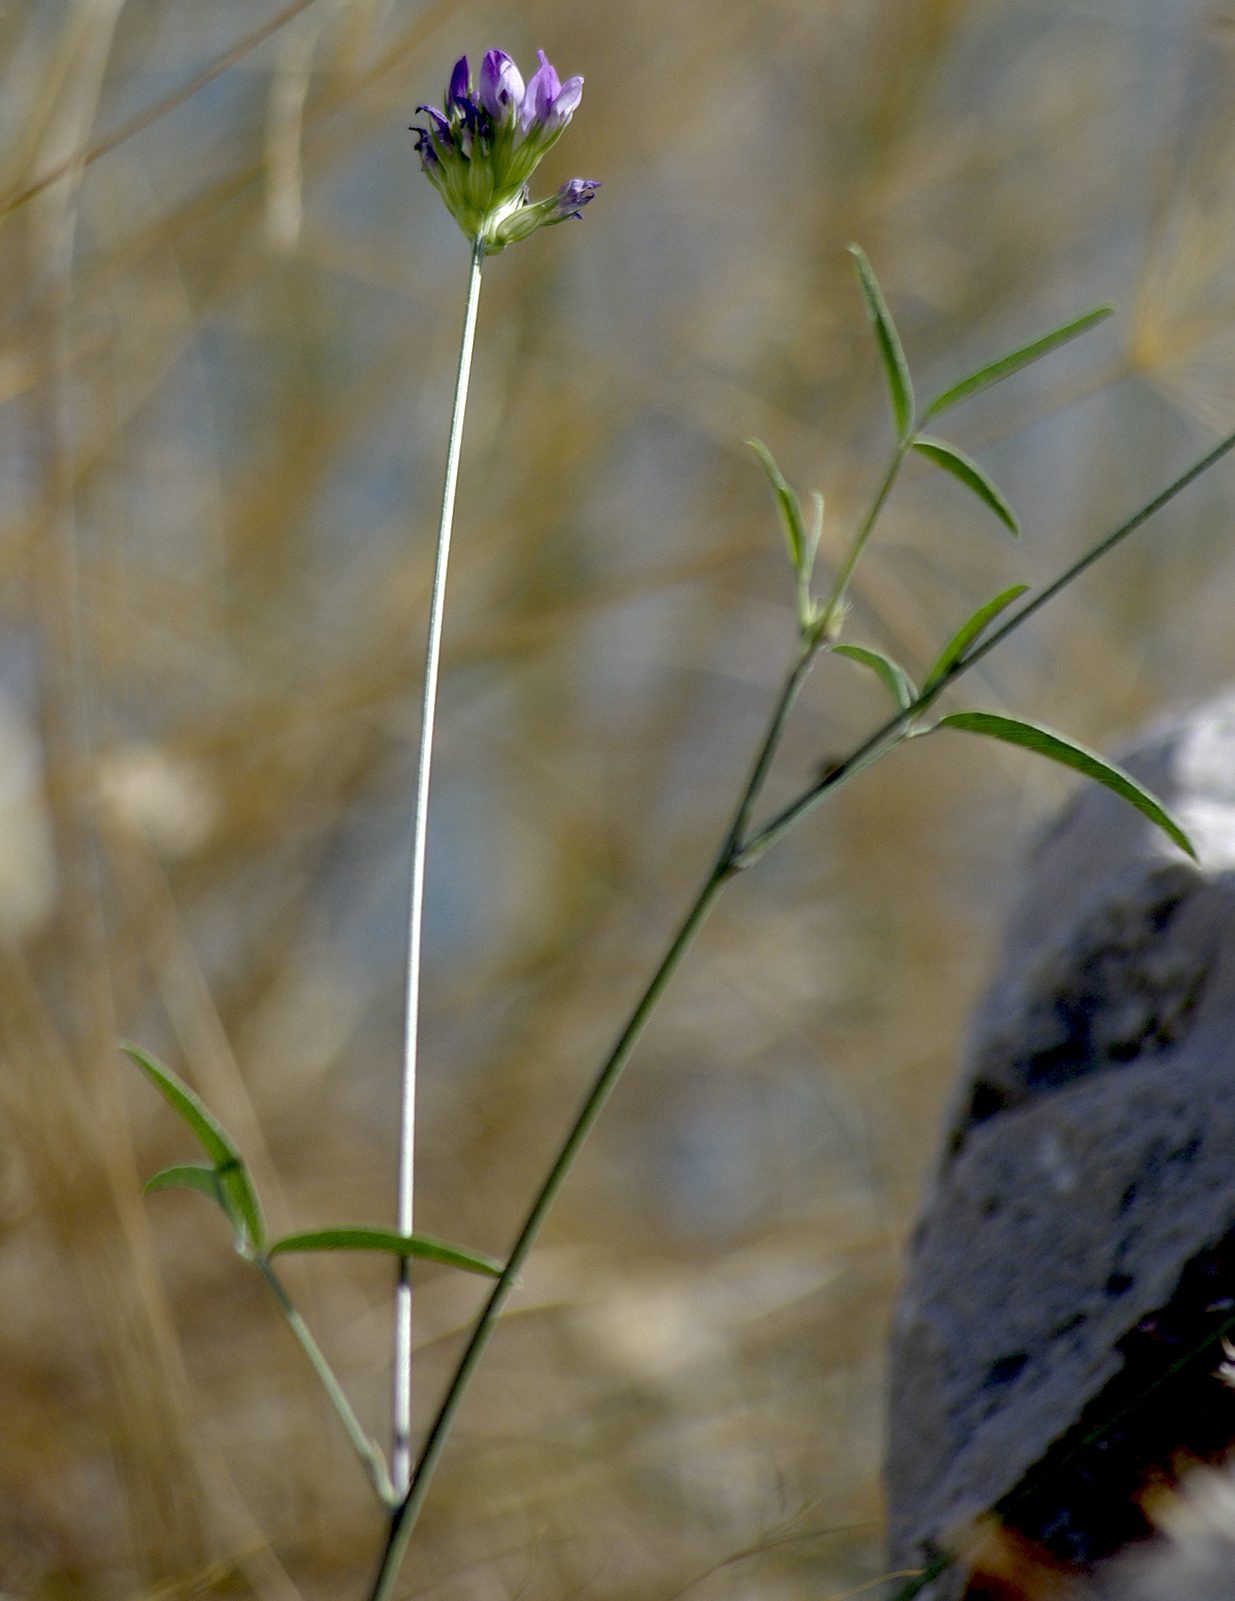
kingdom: Plantae
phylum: Tracheophyta
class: Magnoliopsida
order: Fabales
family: Fabaceae
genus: Bituminaria
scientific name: Bituminaria bituminosa
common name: Arabian pea
